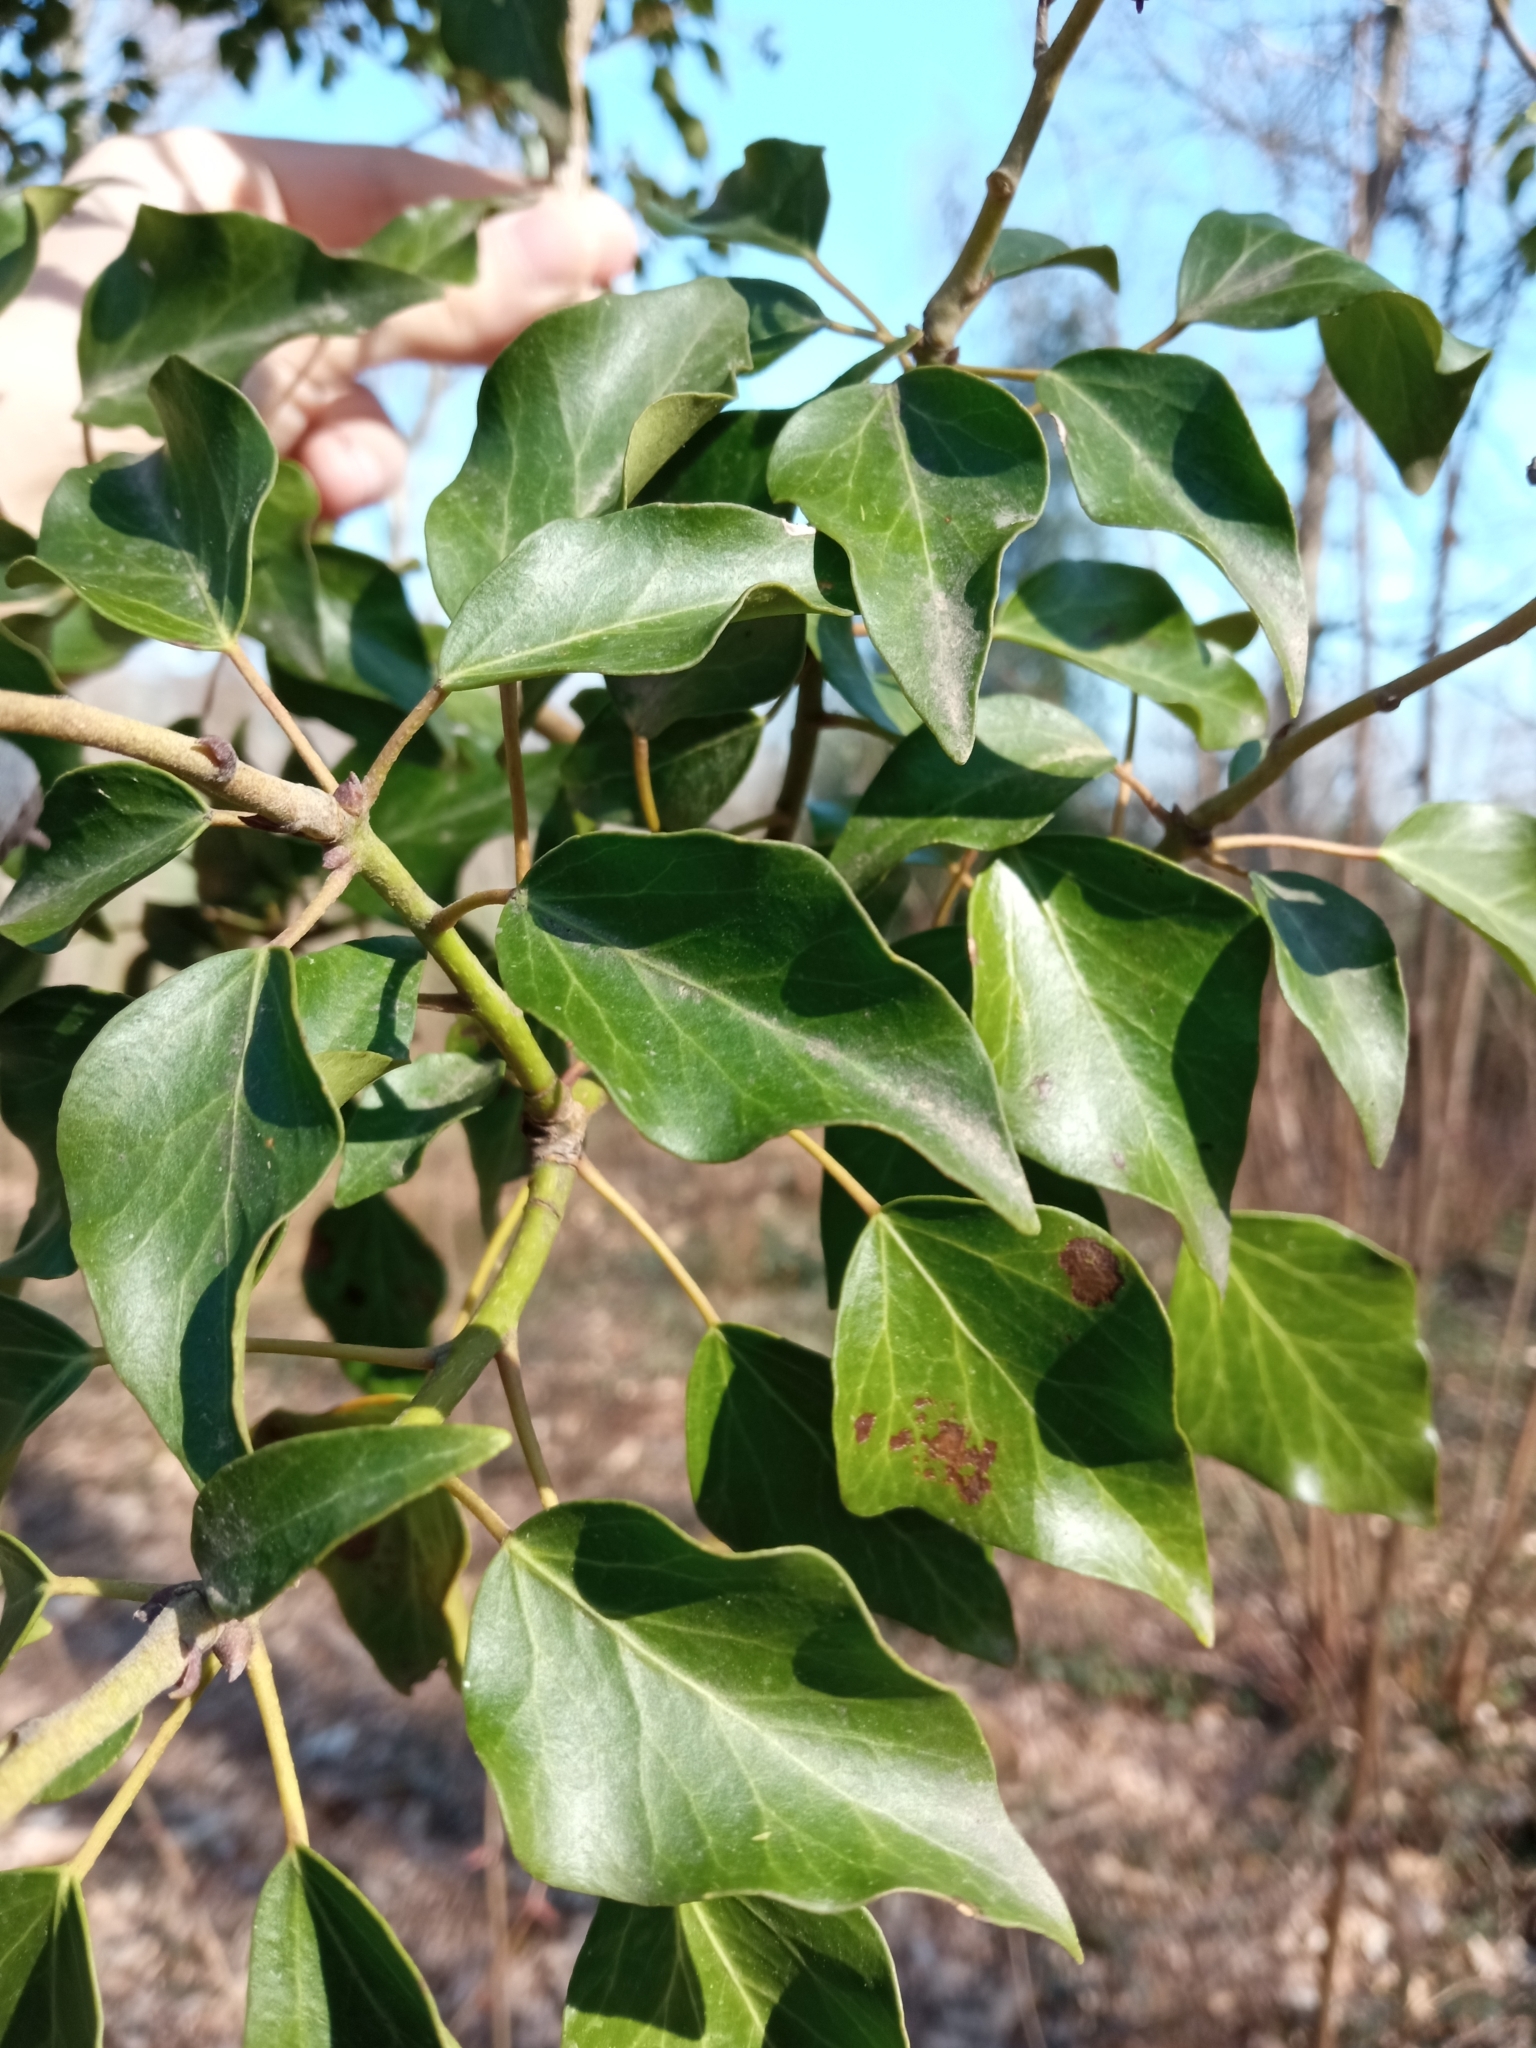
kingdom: Plantae
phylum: Tracheophyta
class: Magnoliopsida
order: Apiales
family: Araliaceae
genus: Hedera
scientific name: Hedera helix
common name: Ivy
